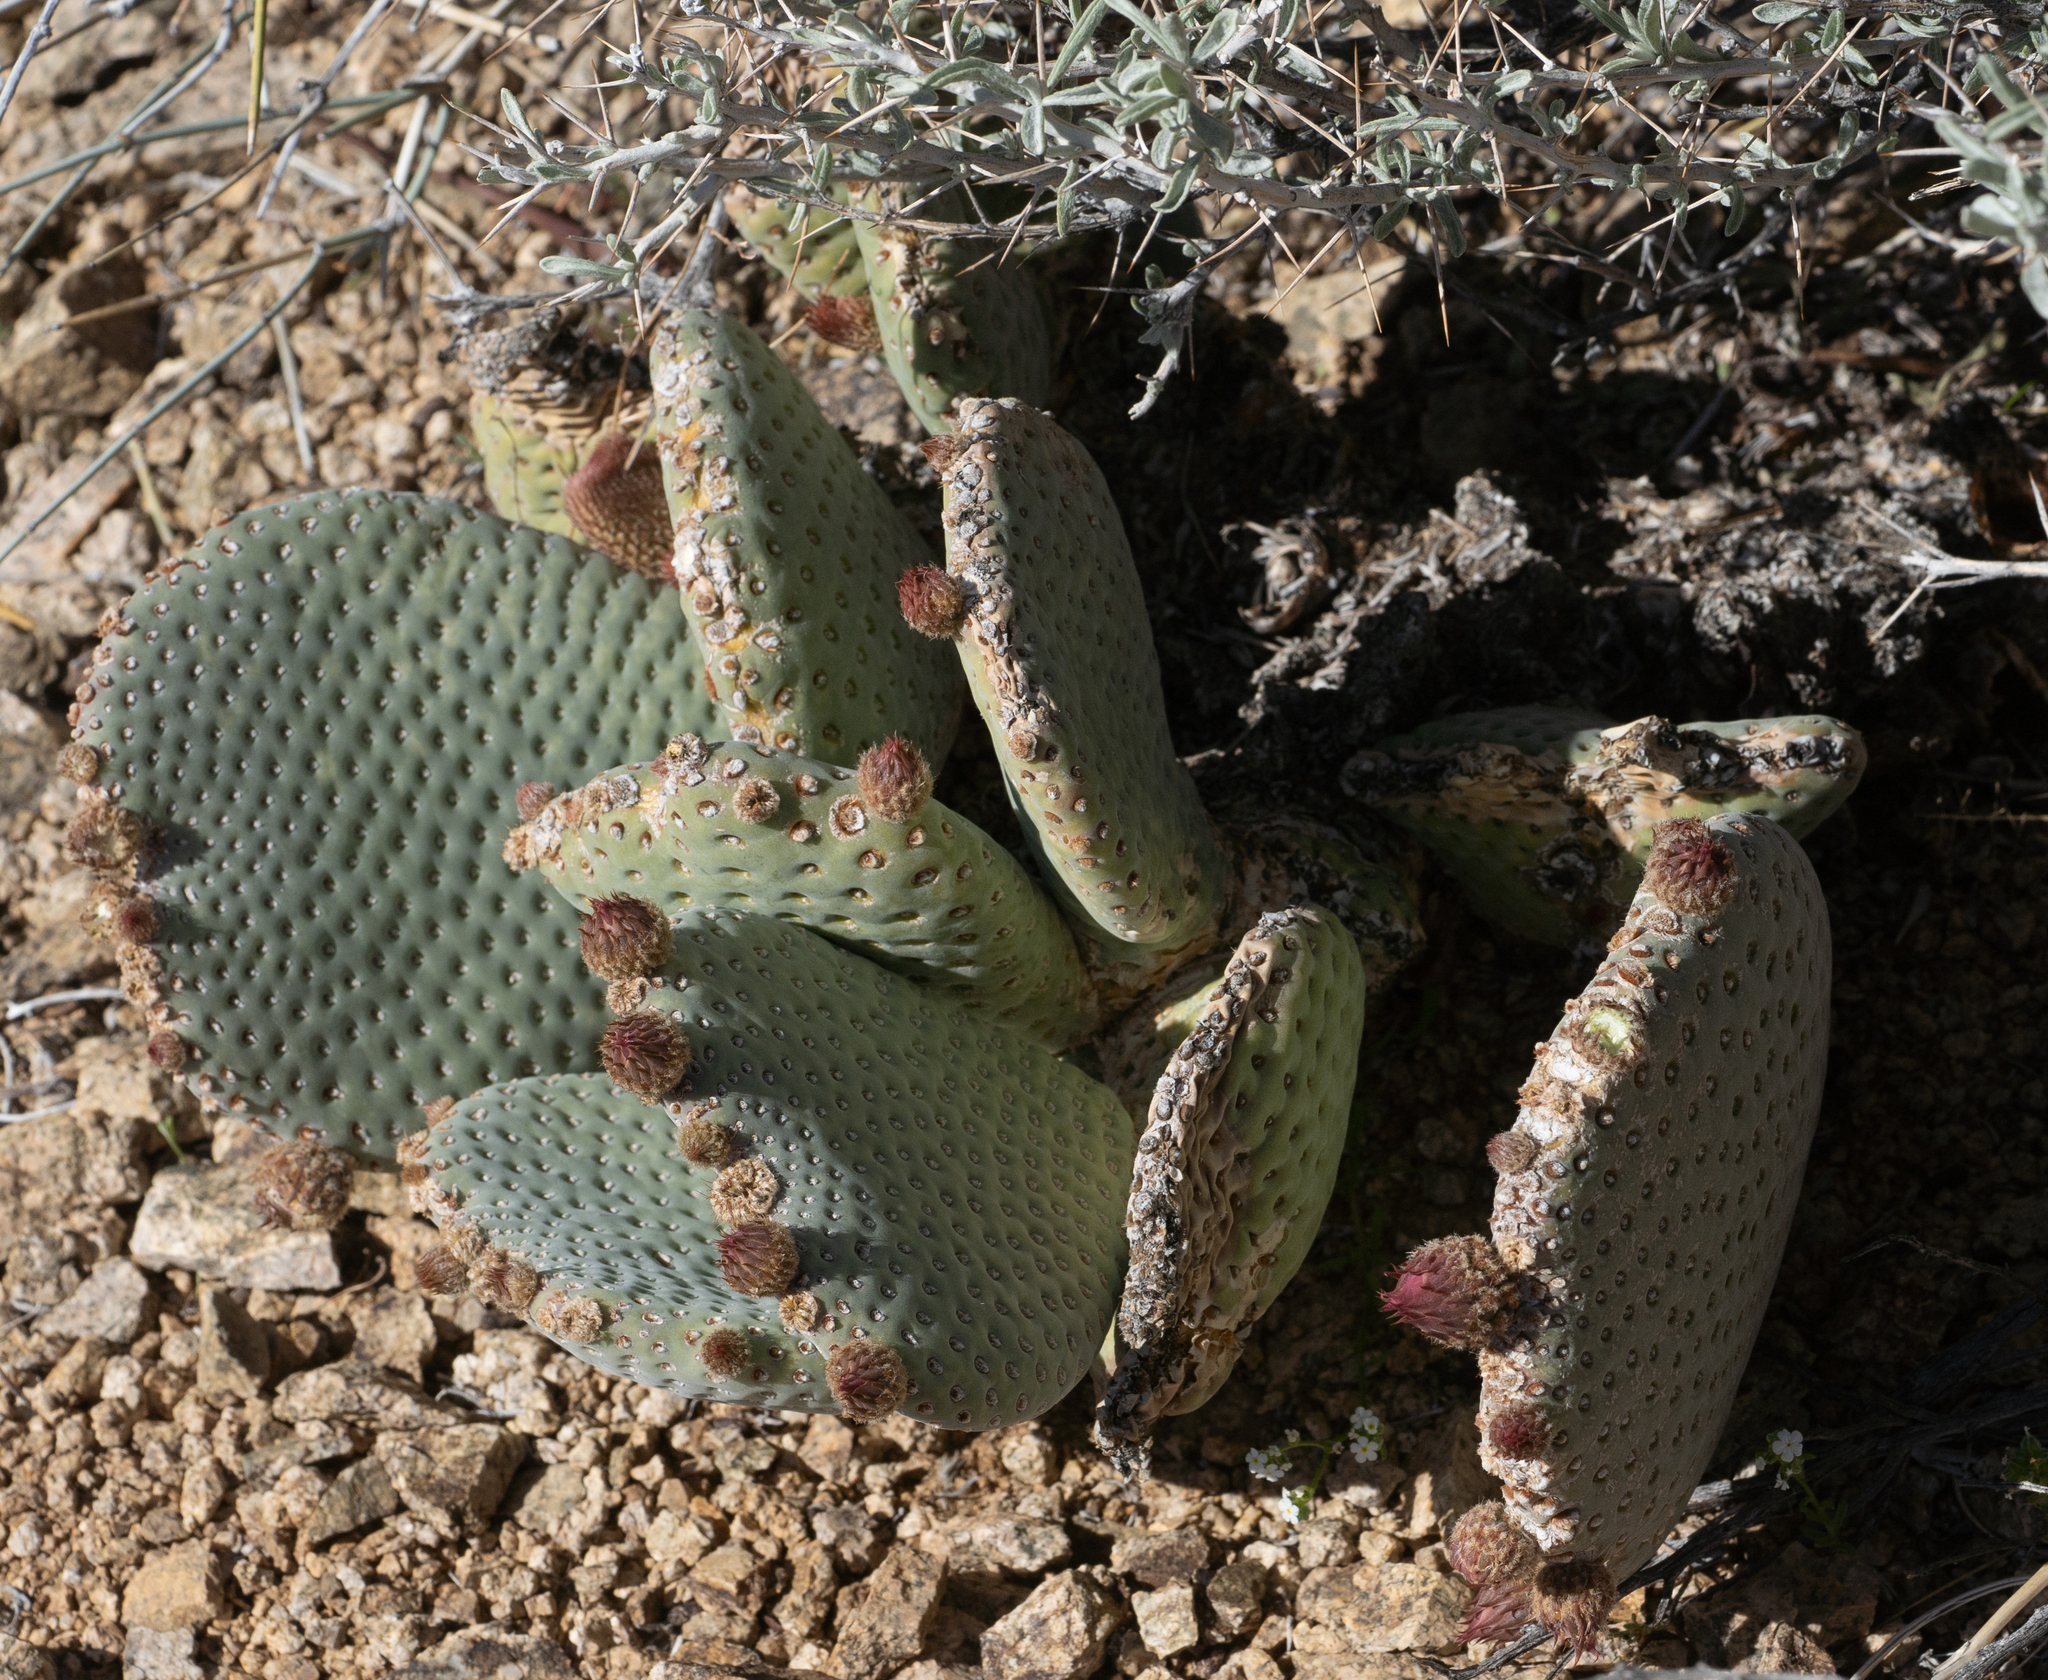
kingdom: Plantae
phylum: Tracheophyta
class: Magnoliopsida
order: Caryophyllales
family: Cactaceae
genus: Opuntia
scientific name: Opuntia basilaris
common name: Beavertail prickly-pear
